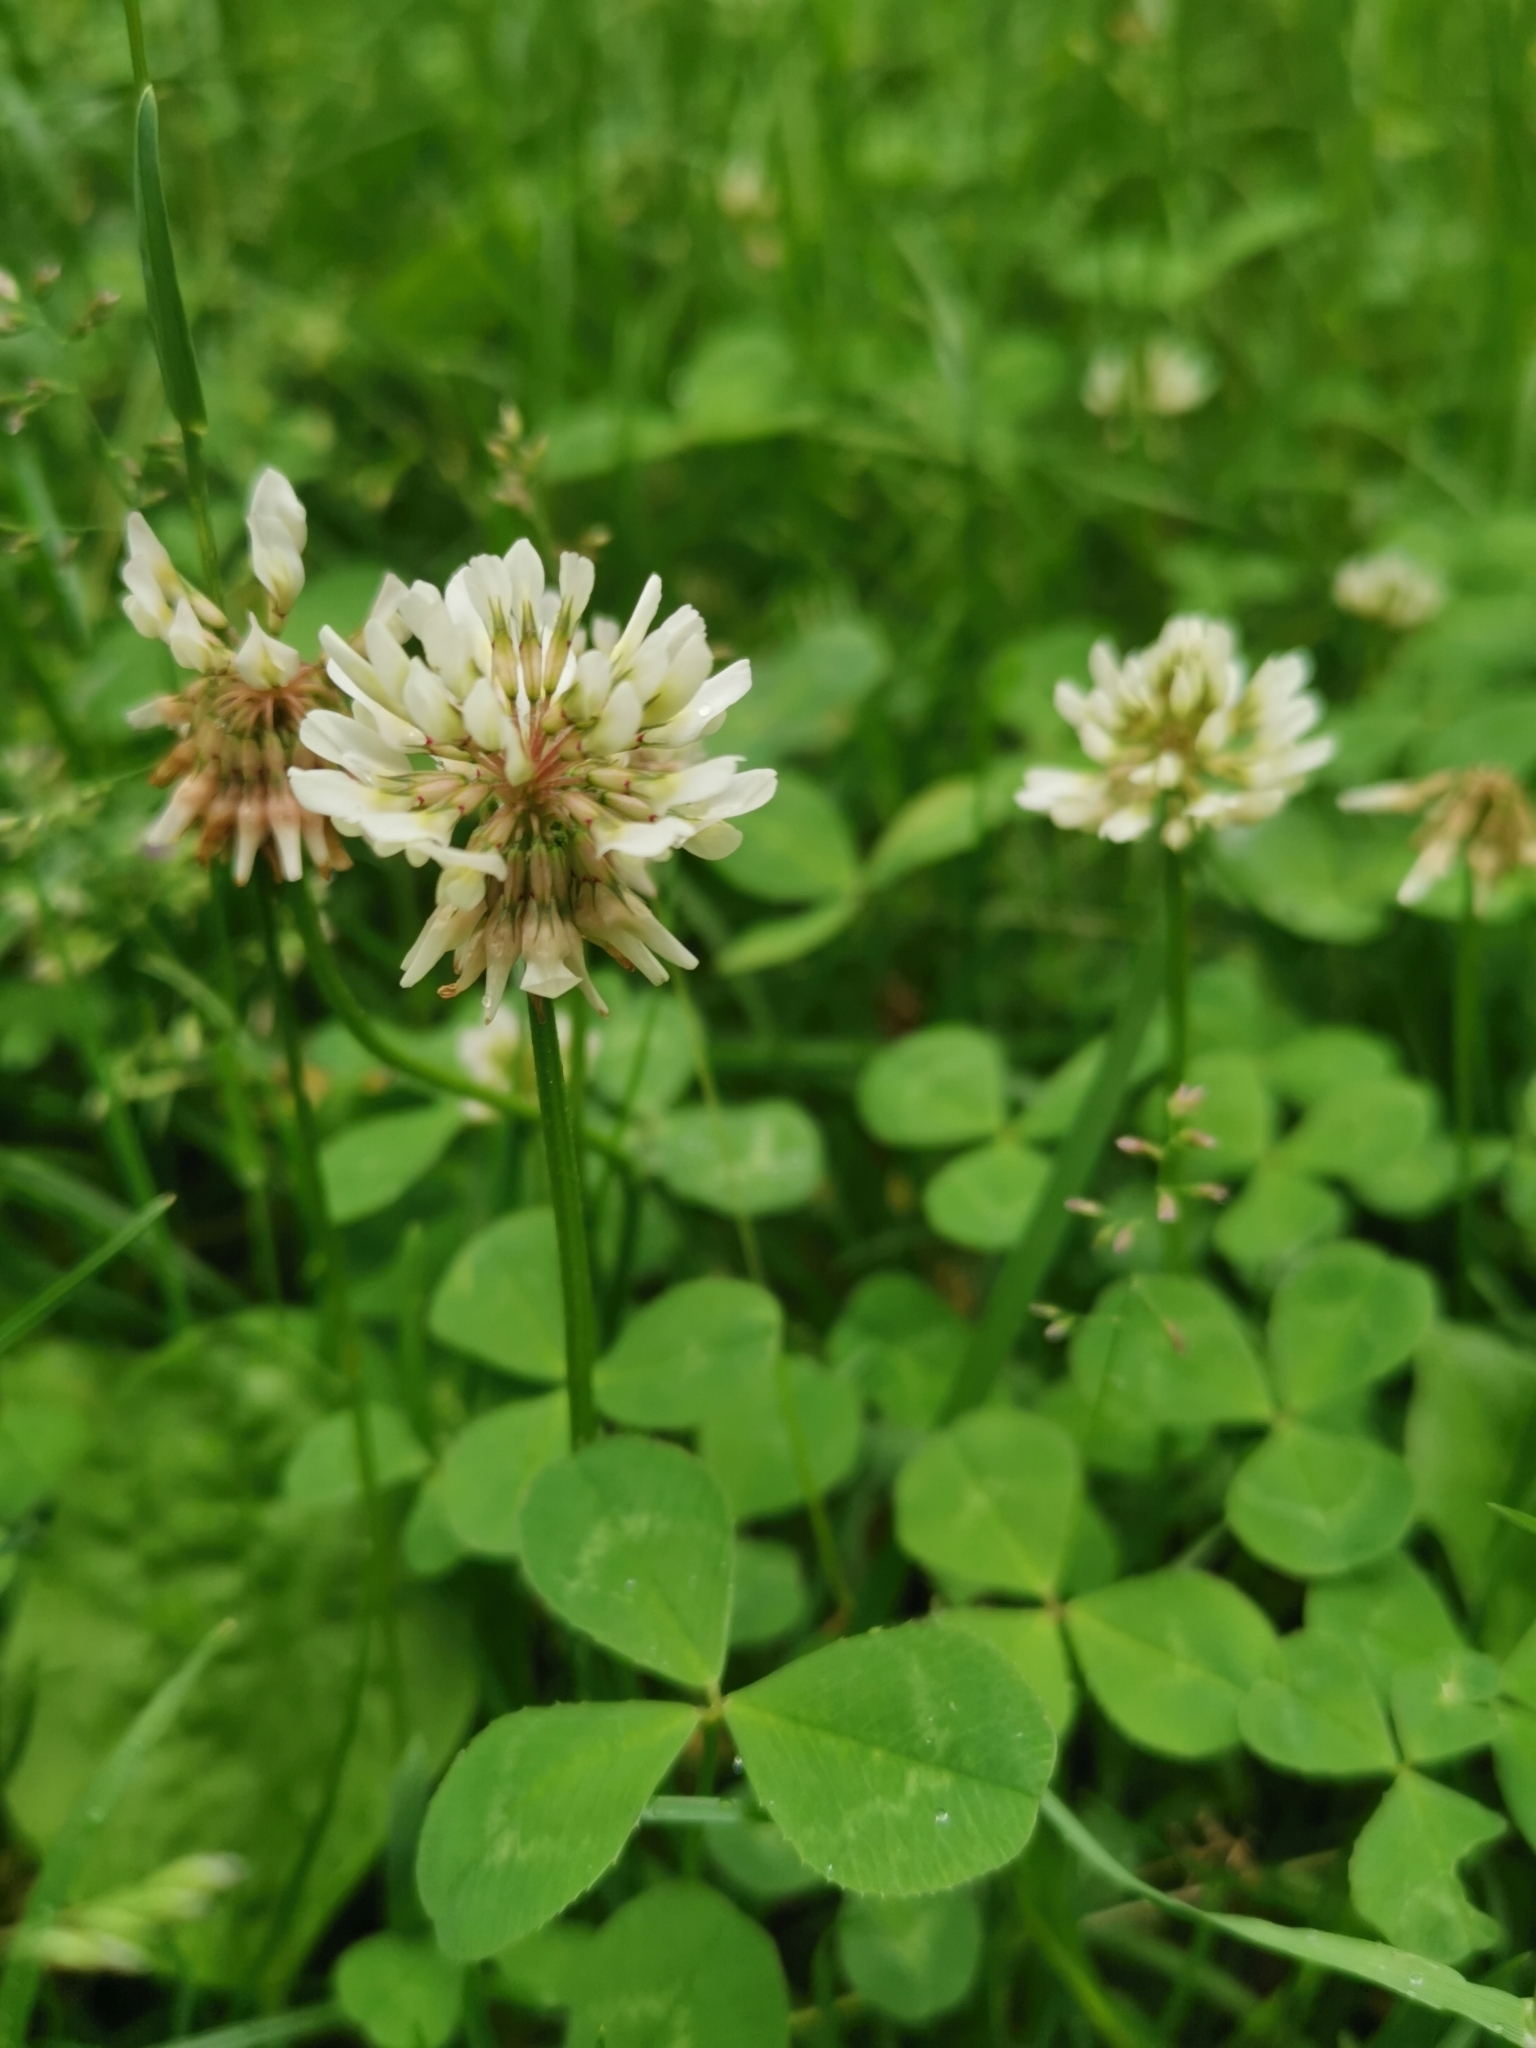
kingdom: Plantae
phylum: Tracheophyta
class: Magnoliopsida
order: Fabales
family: Fabaceae
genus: Trifolium
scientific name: Trifolium repens
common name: White clover
